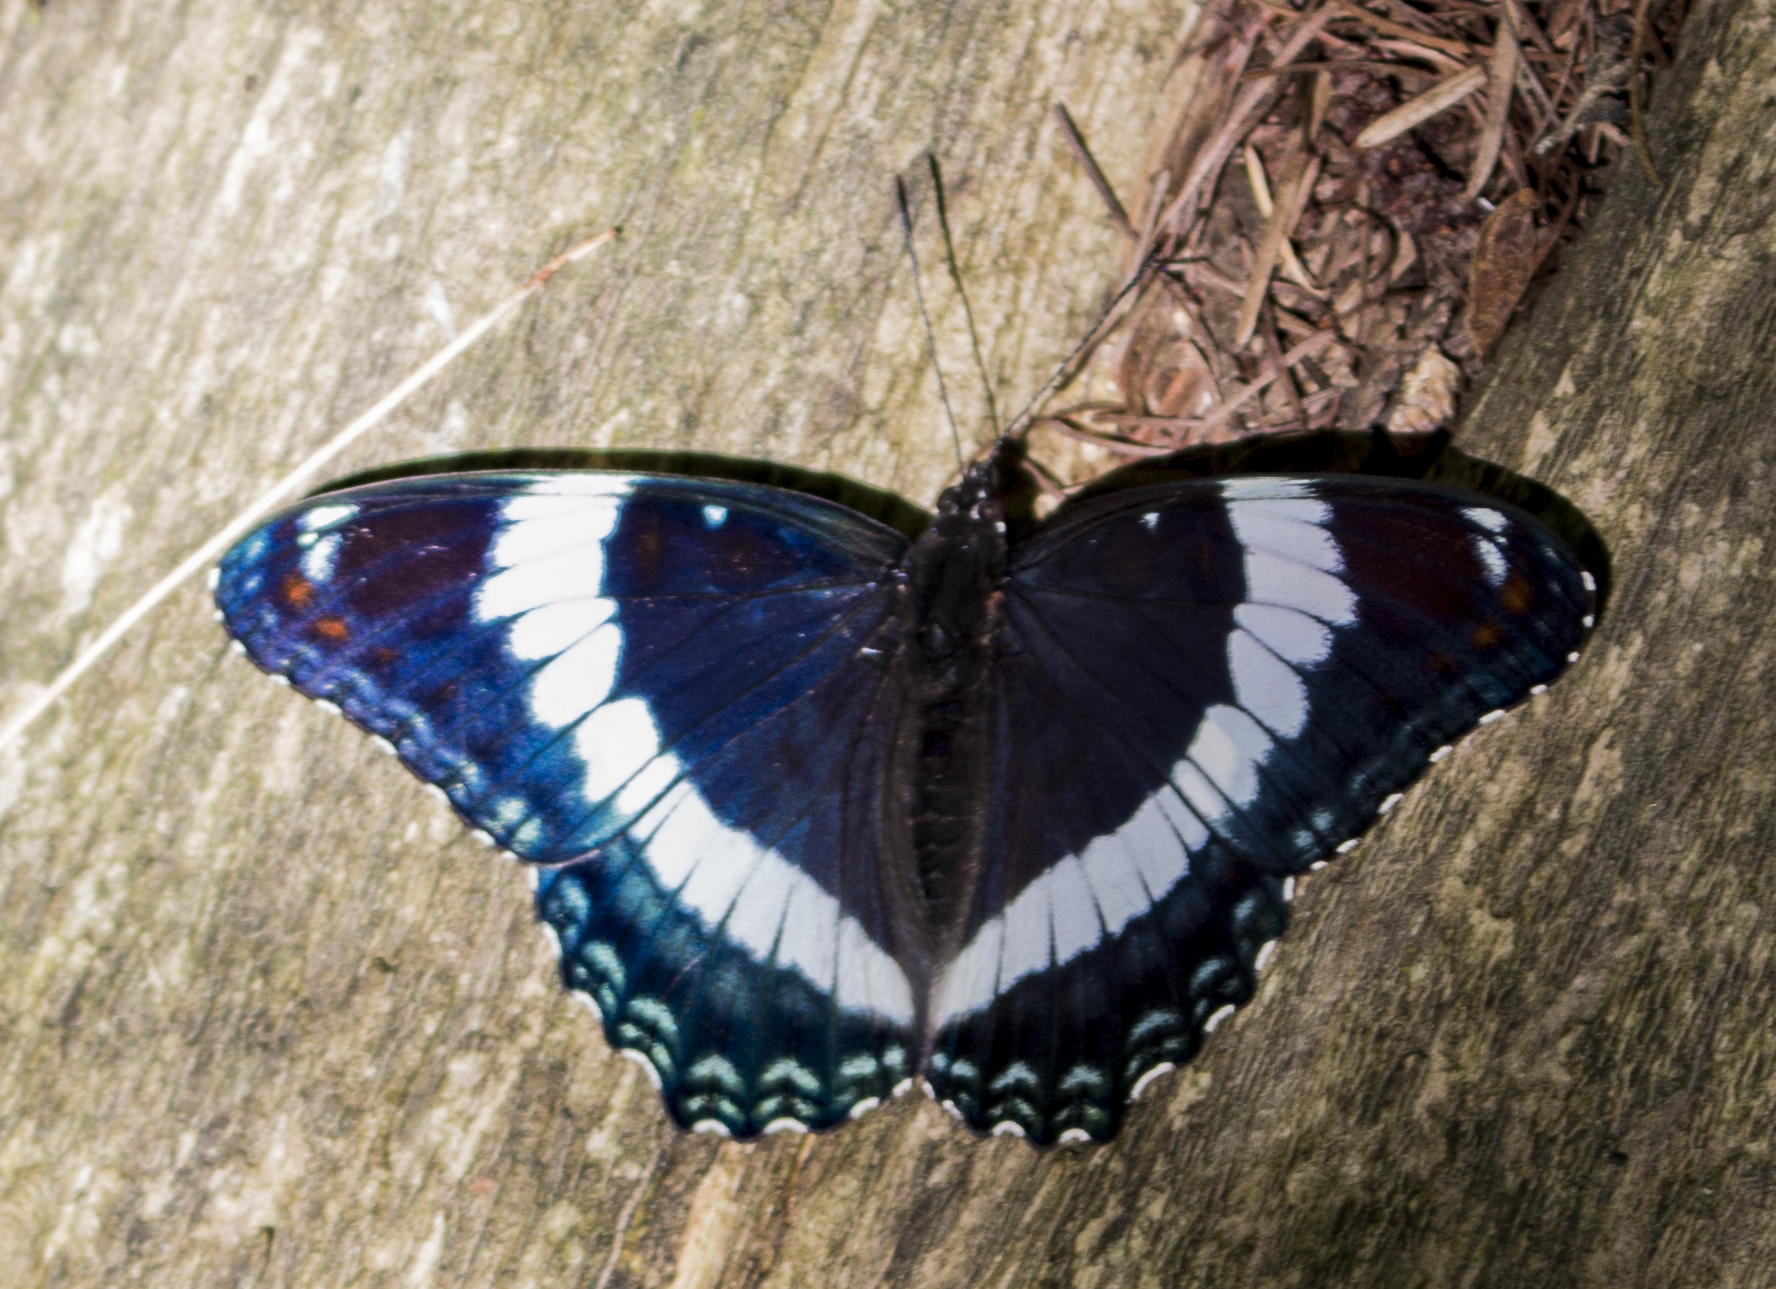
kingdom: Animalia
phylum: Arthropoda
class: Insecta
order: Lepidoptera
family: Nymphalidae
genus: Limenitis
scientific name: Limenitis arthemis
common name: Red-spotted admiral
